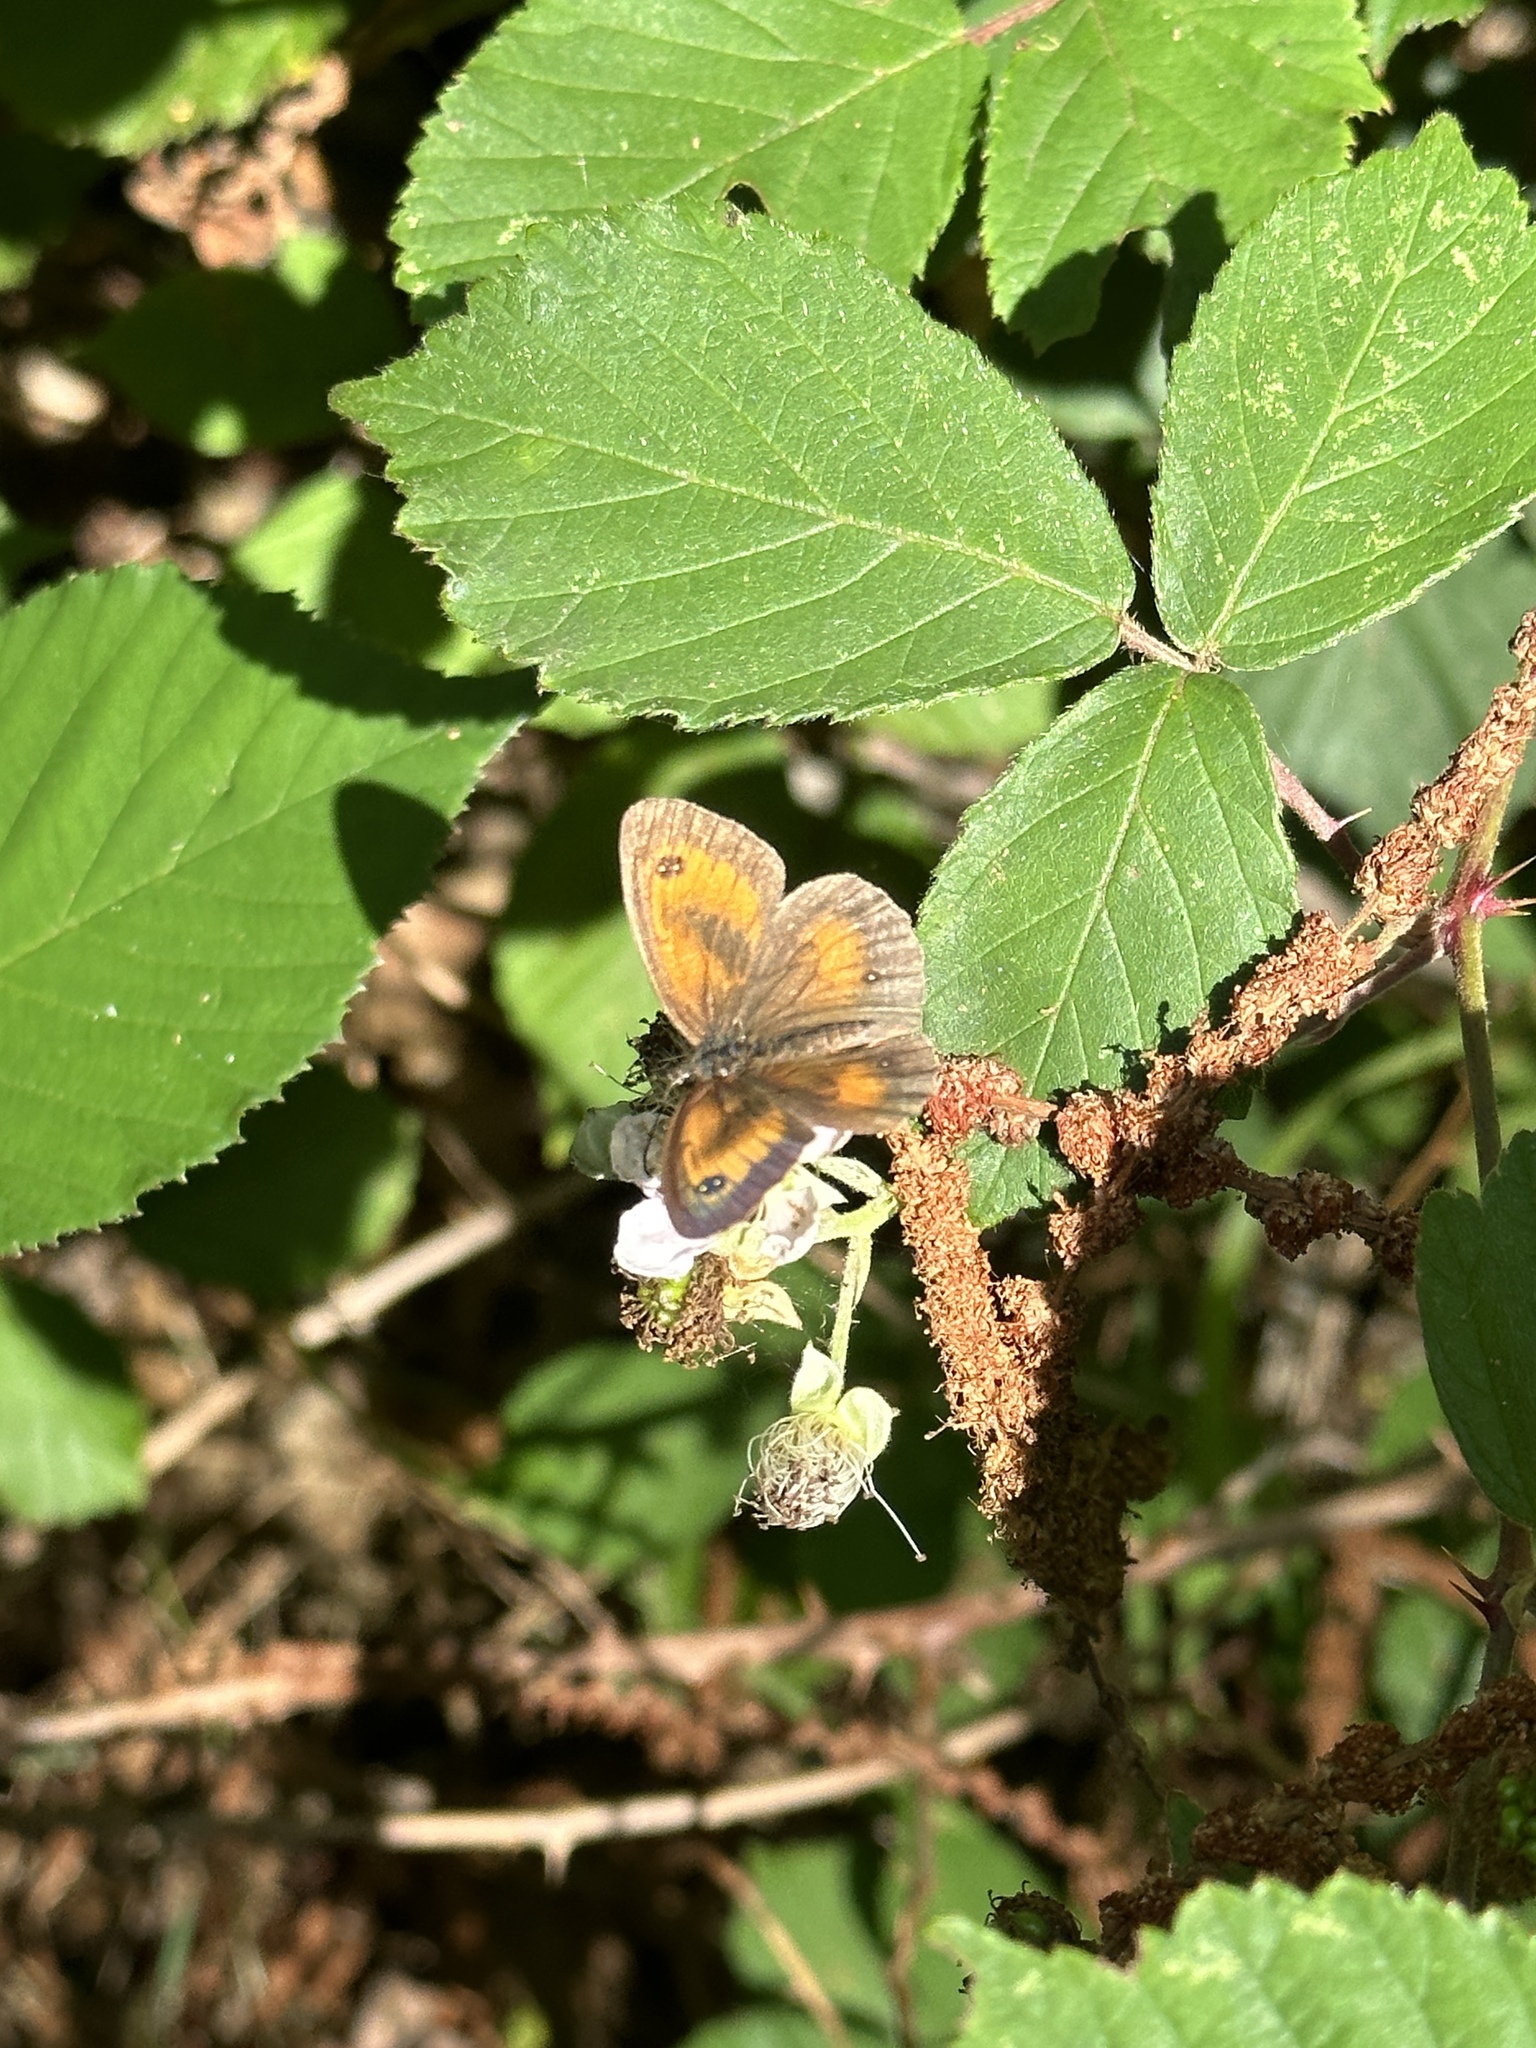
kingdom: Animalia
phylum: Arthropoda
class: Insecta
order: Lepidoptera
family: Nymphalidae
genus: Pyronia
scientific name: Pyronia tithonus
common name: Gatekeeper
